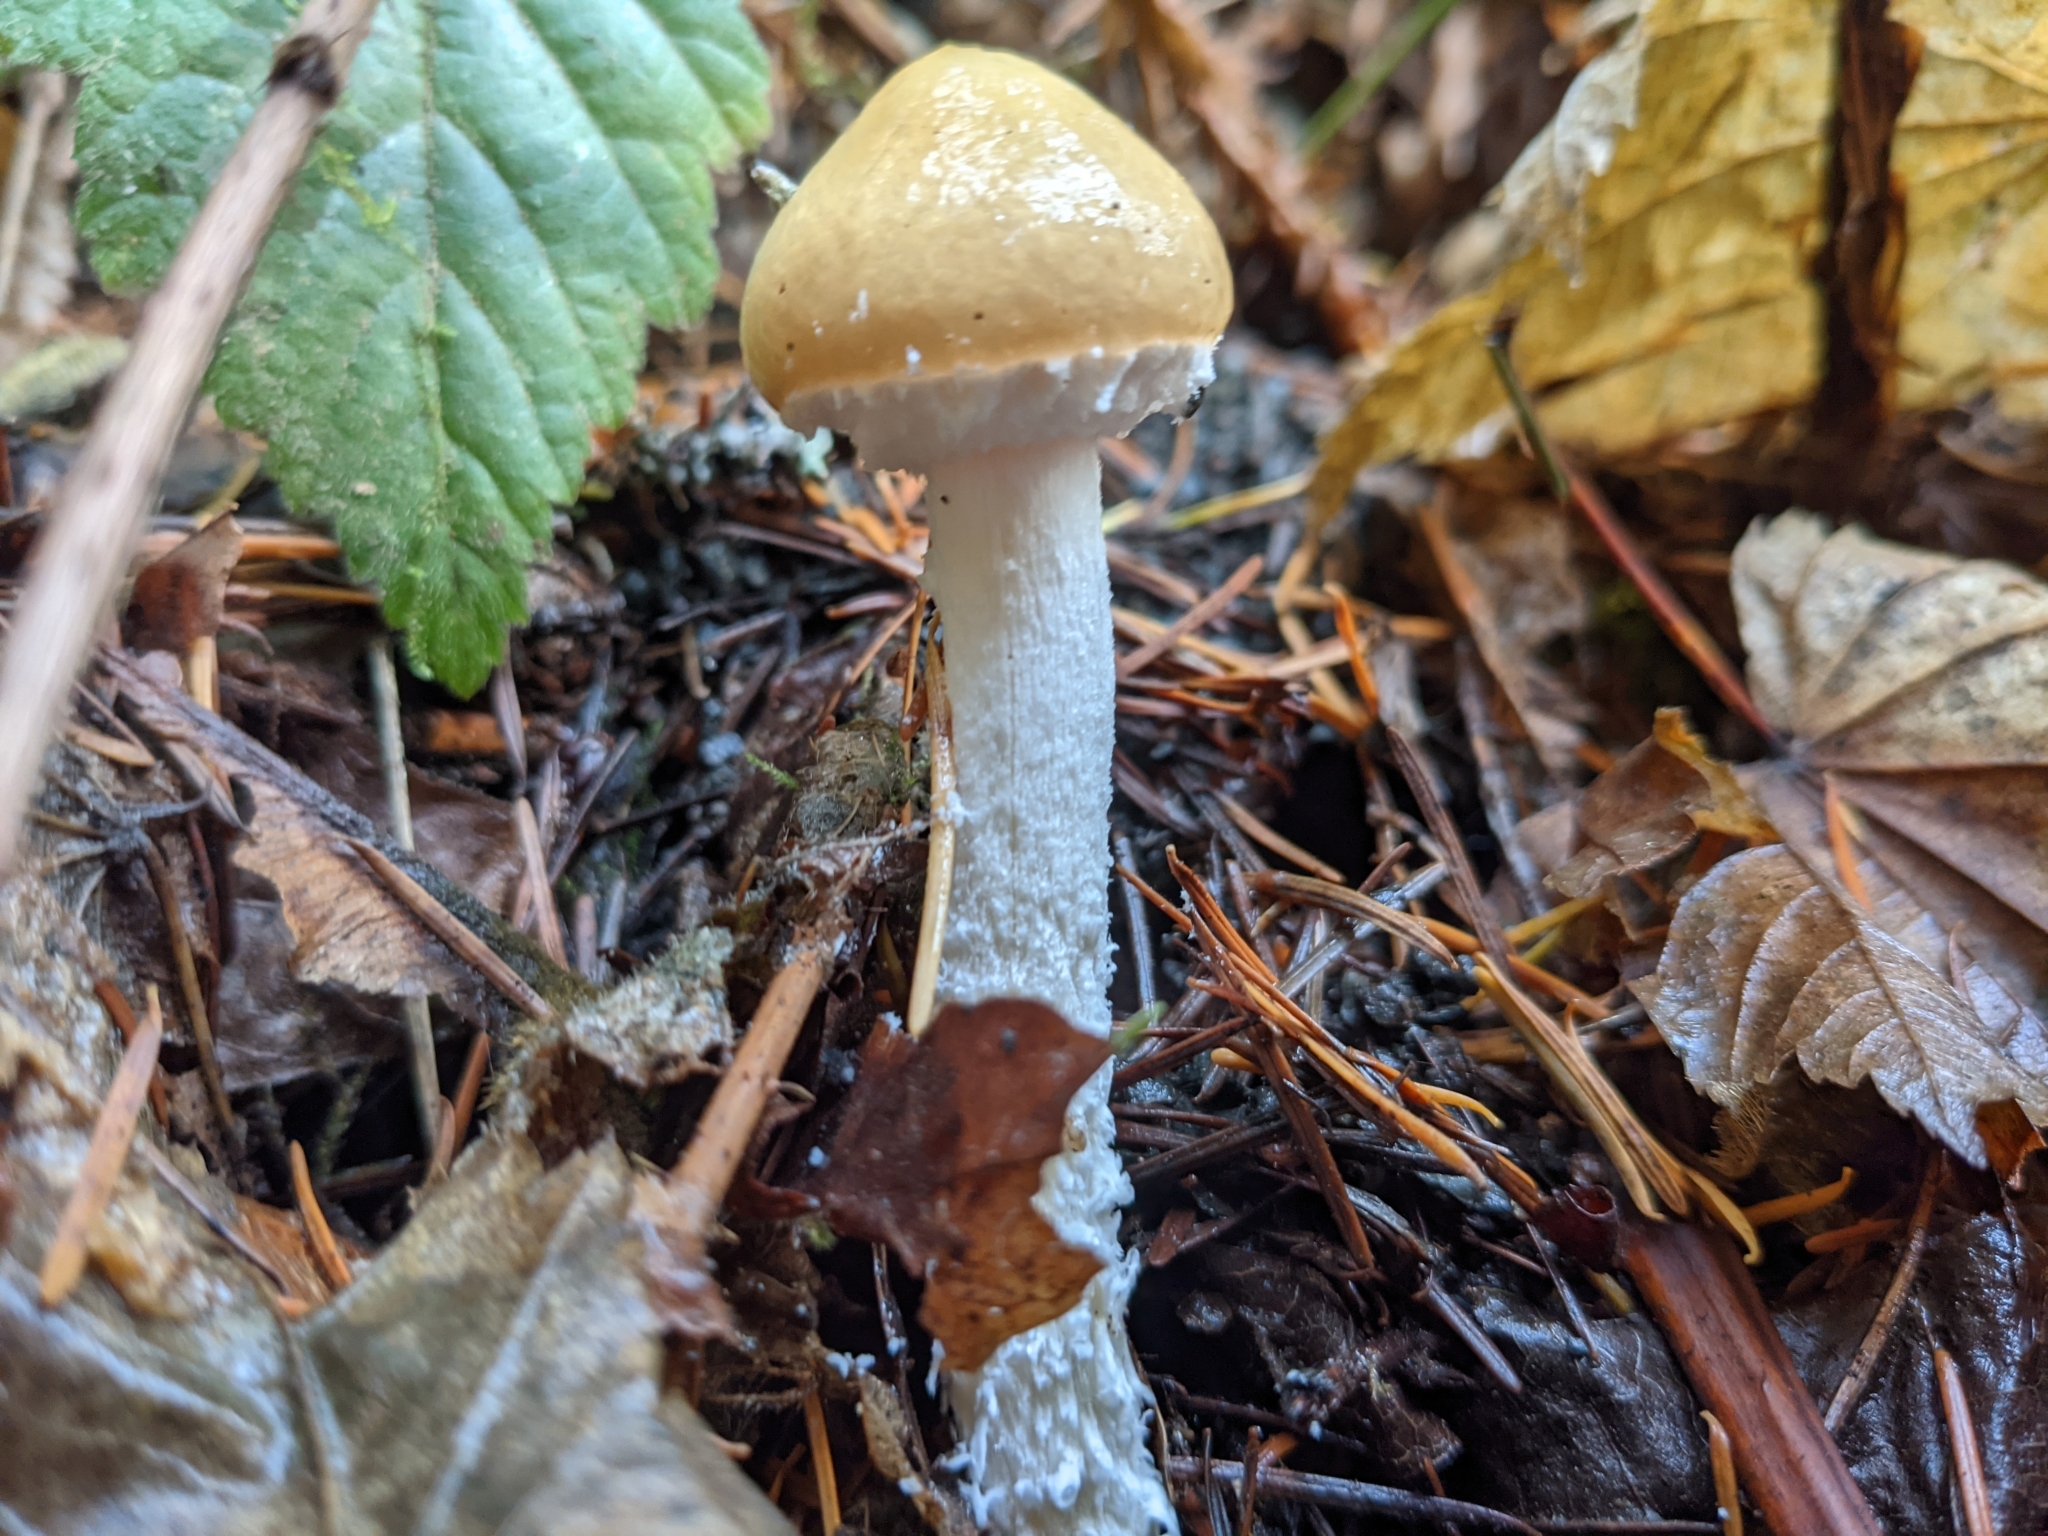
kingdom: Fungi
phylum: Basidiomycota
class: Agaricomycetes
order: Agaricales
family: Strophariaceae
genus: Stropharia
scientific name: Stropharia ambigua
